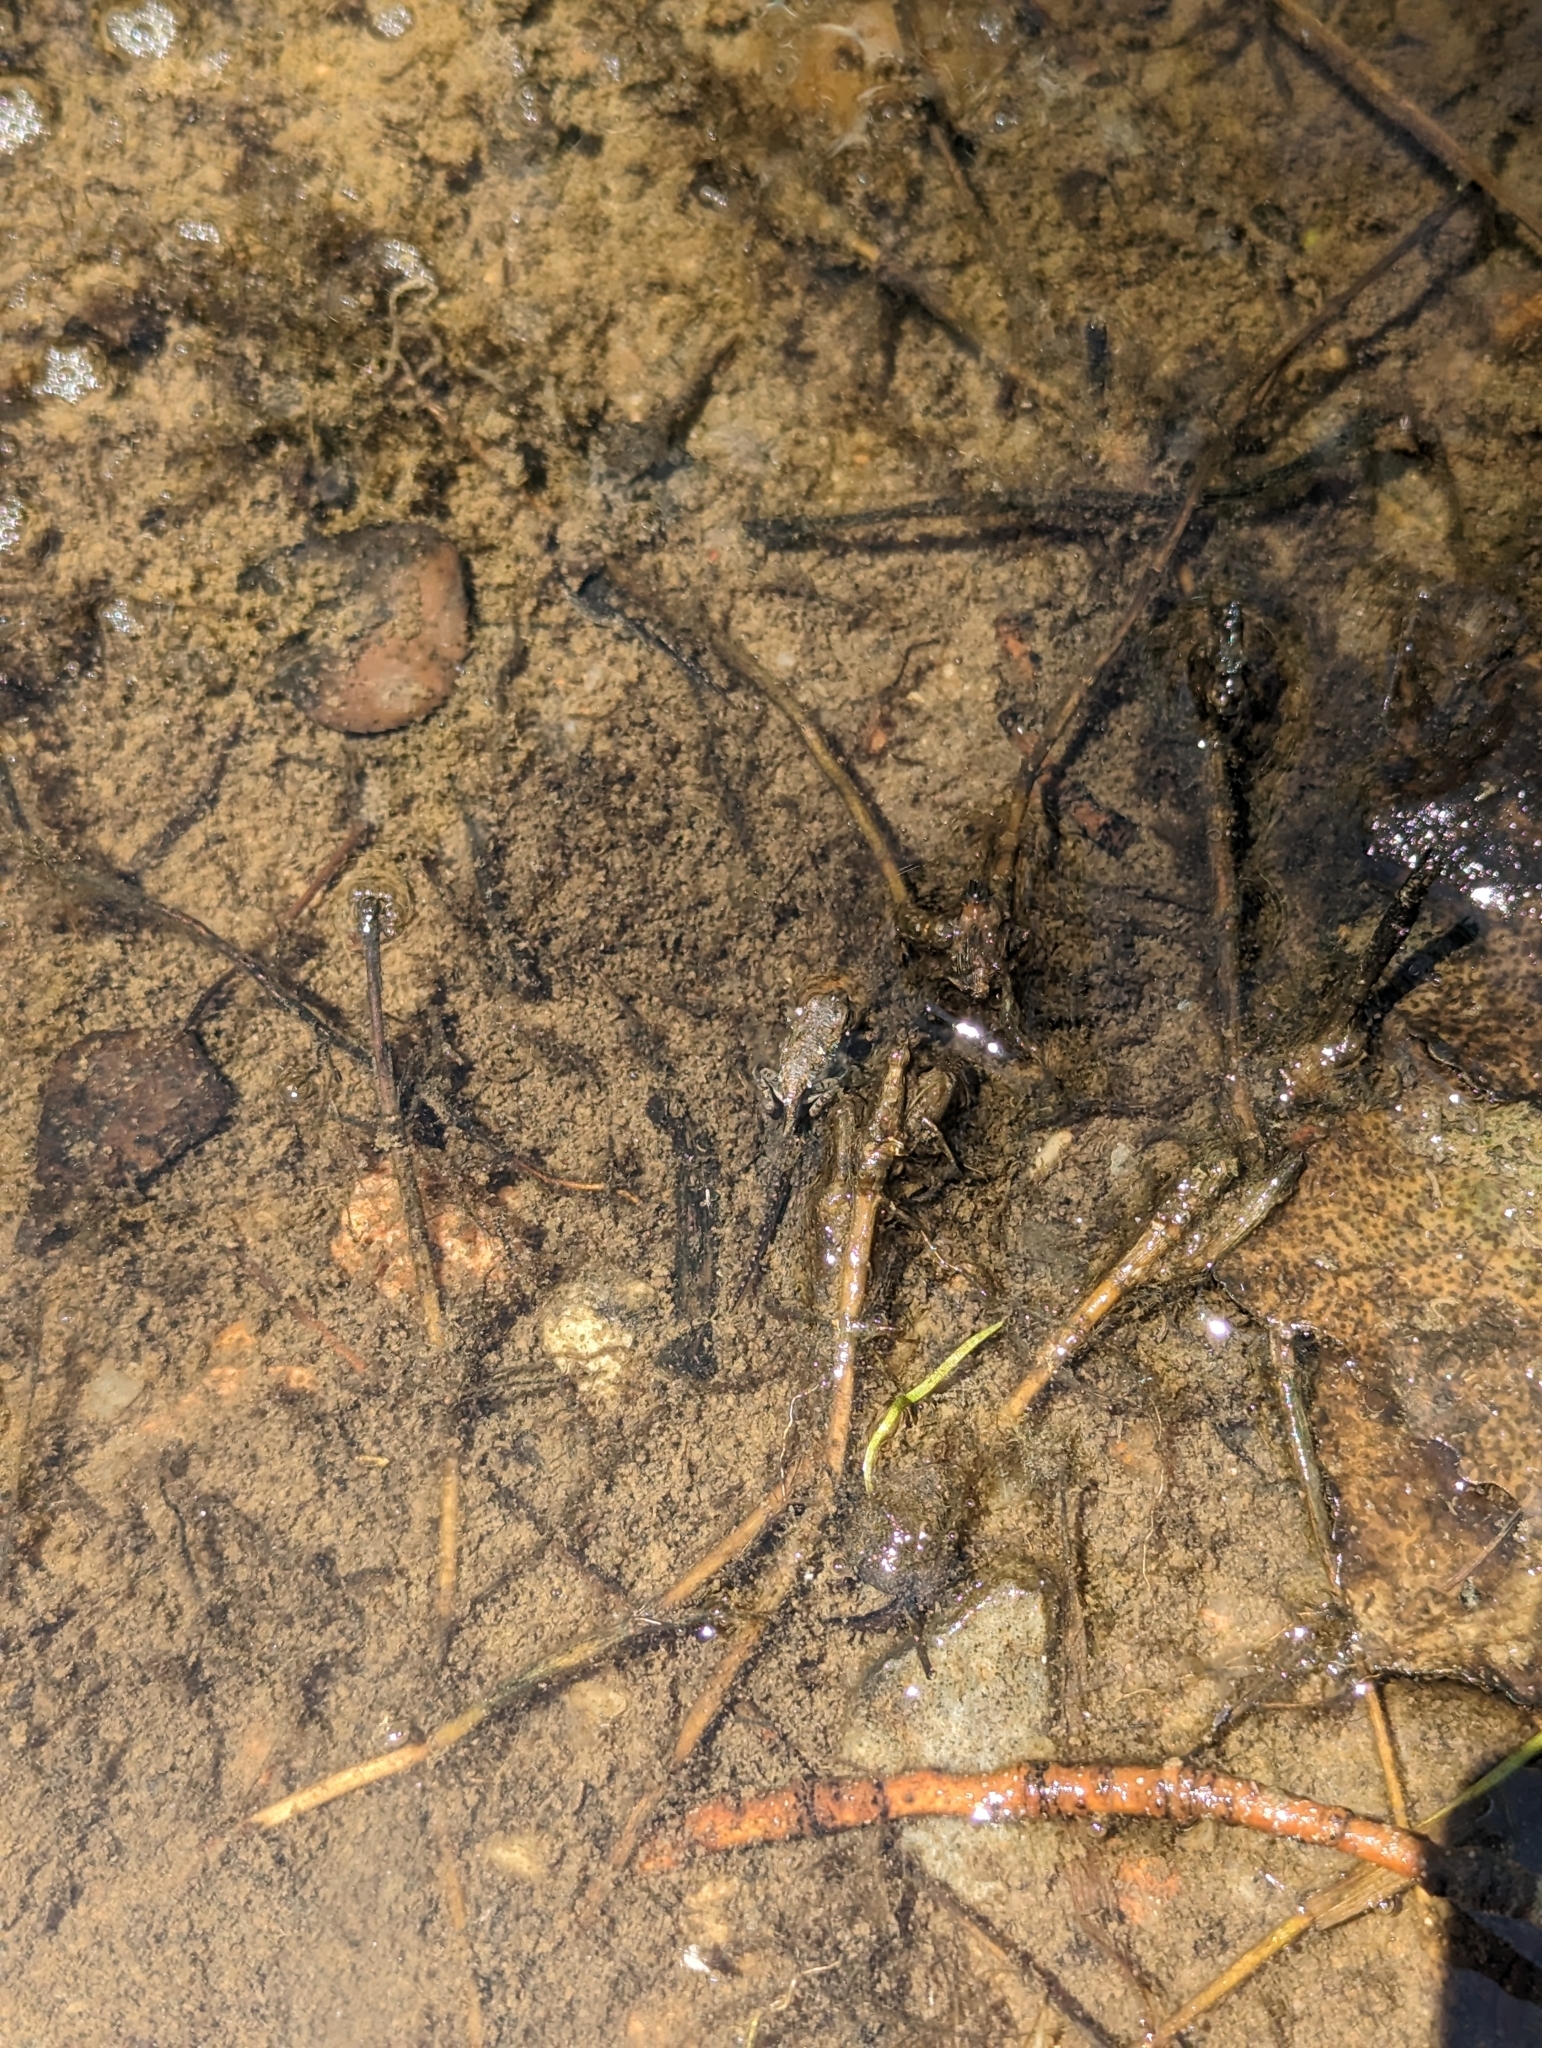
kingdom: Animalia
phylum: Chordata
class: Amphibia
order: Anura
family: Bufonidae
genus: Anaxyrus
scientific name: Anaxyrus woodhousii
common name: Woodhouse's toad
